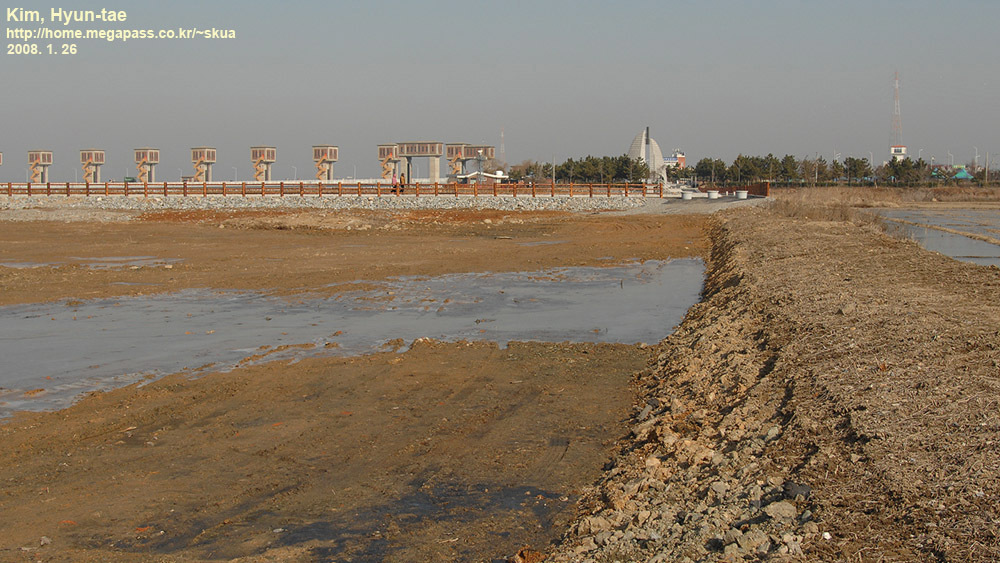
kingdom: Animalia
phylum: Chordata
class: Aves
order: Anseriformes
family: Anatidae
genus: Sibirionetta
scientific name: Sibirionetta formosa
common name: Baikal teal
